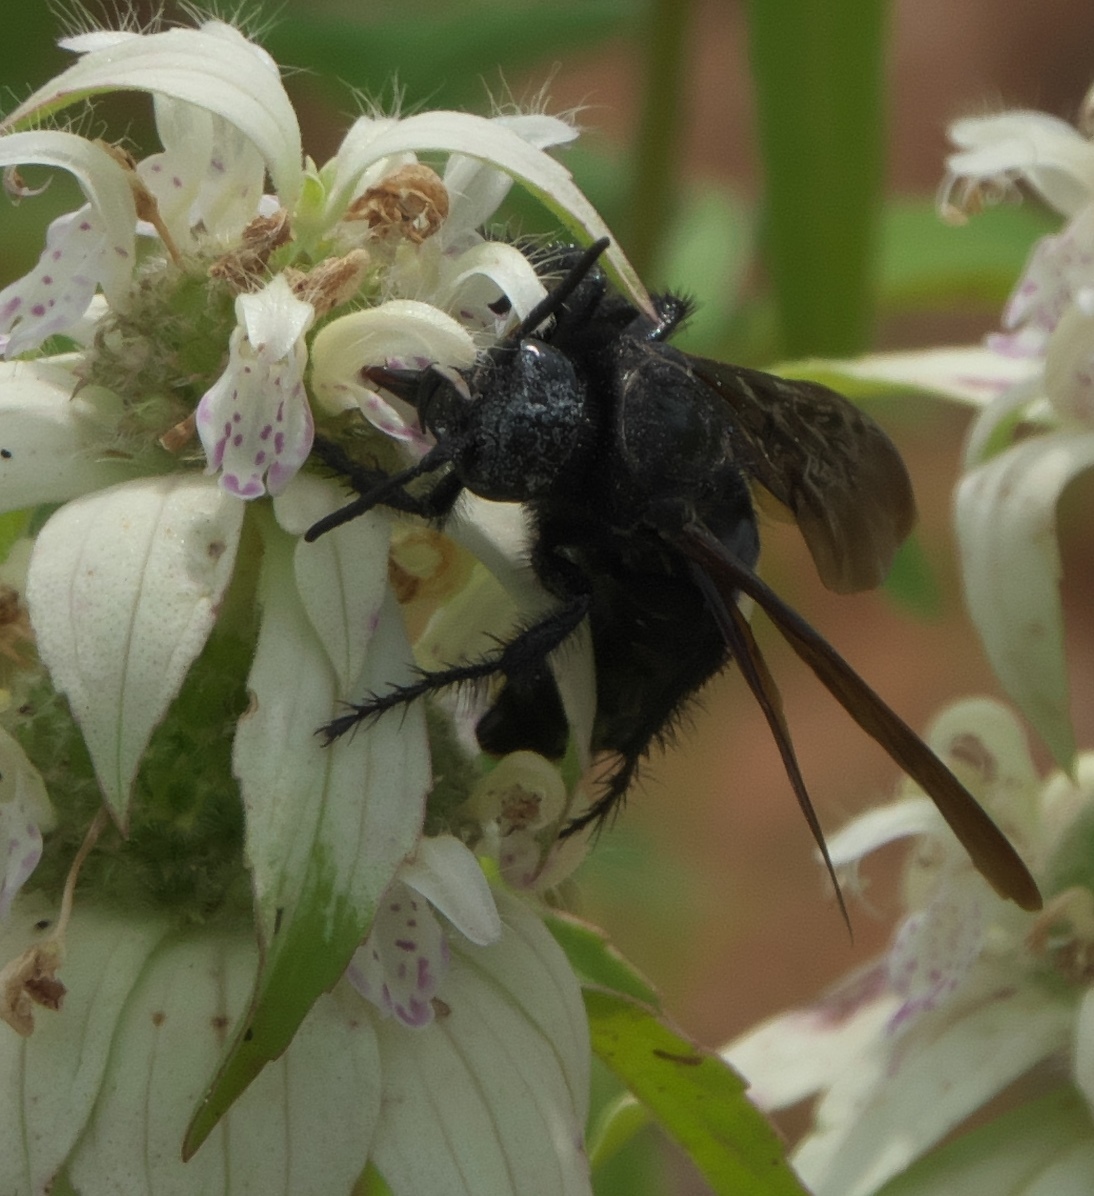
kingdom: Animalia
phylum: Arthropoda
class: Insecta
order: Hymenoptera
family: Scoliidae
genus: Pygodasis
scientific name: Pygodasis
